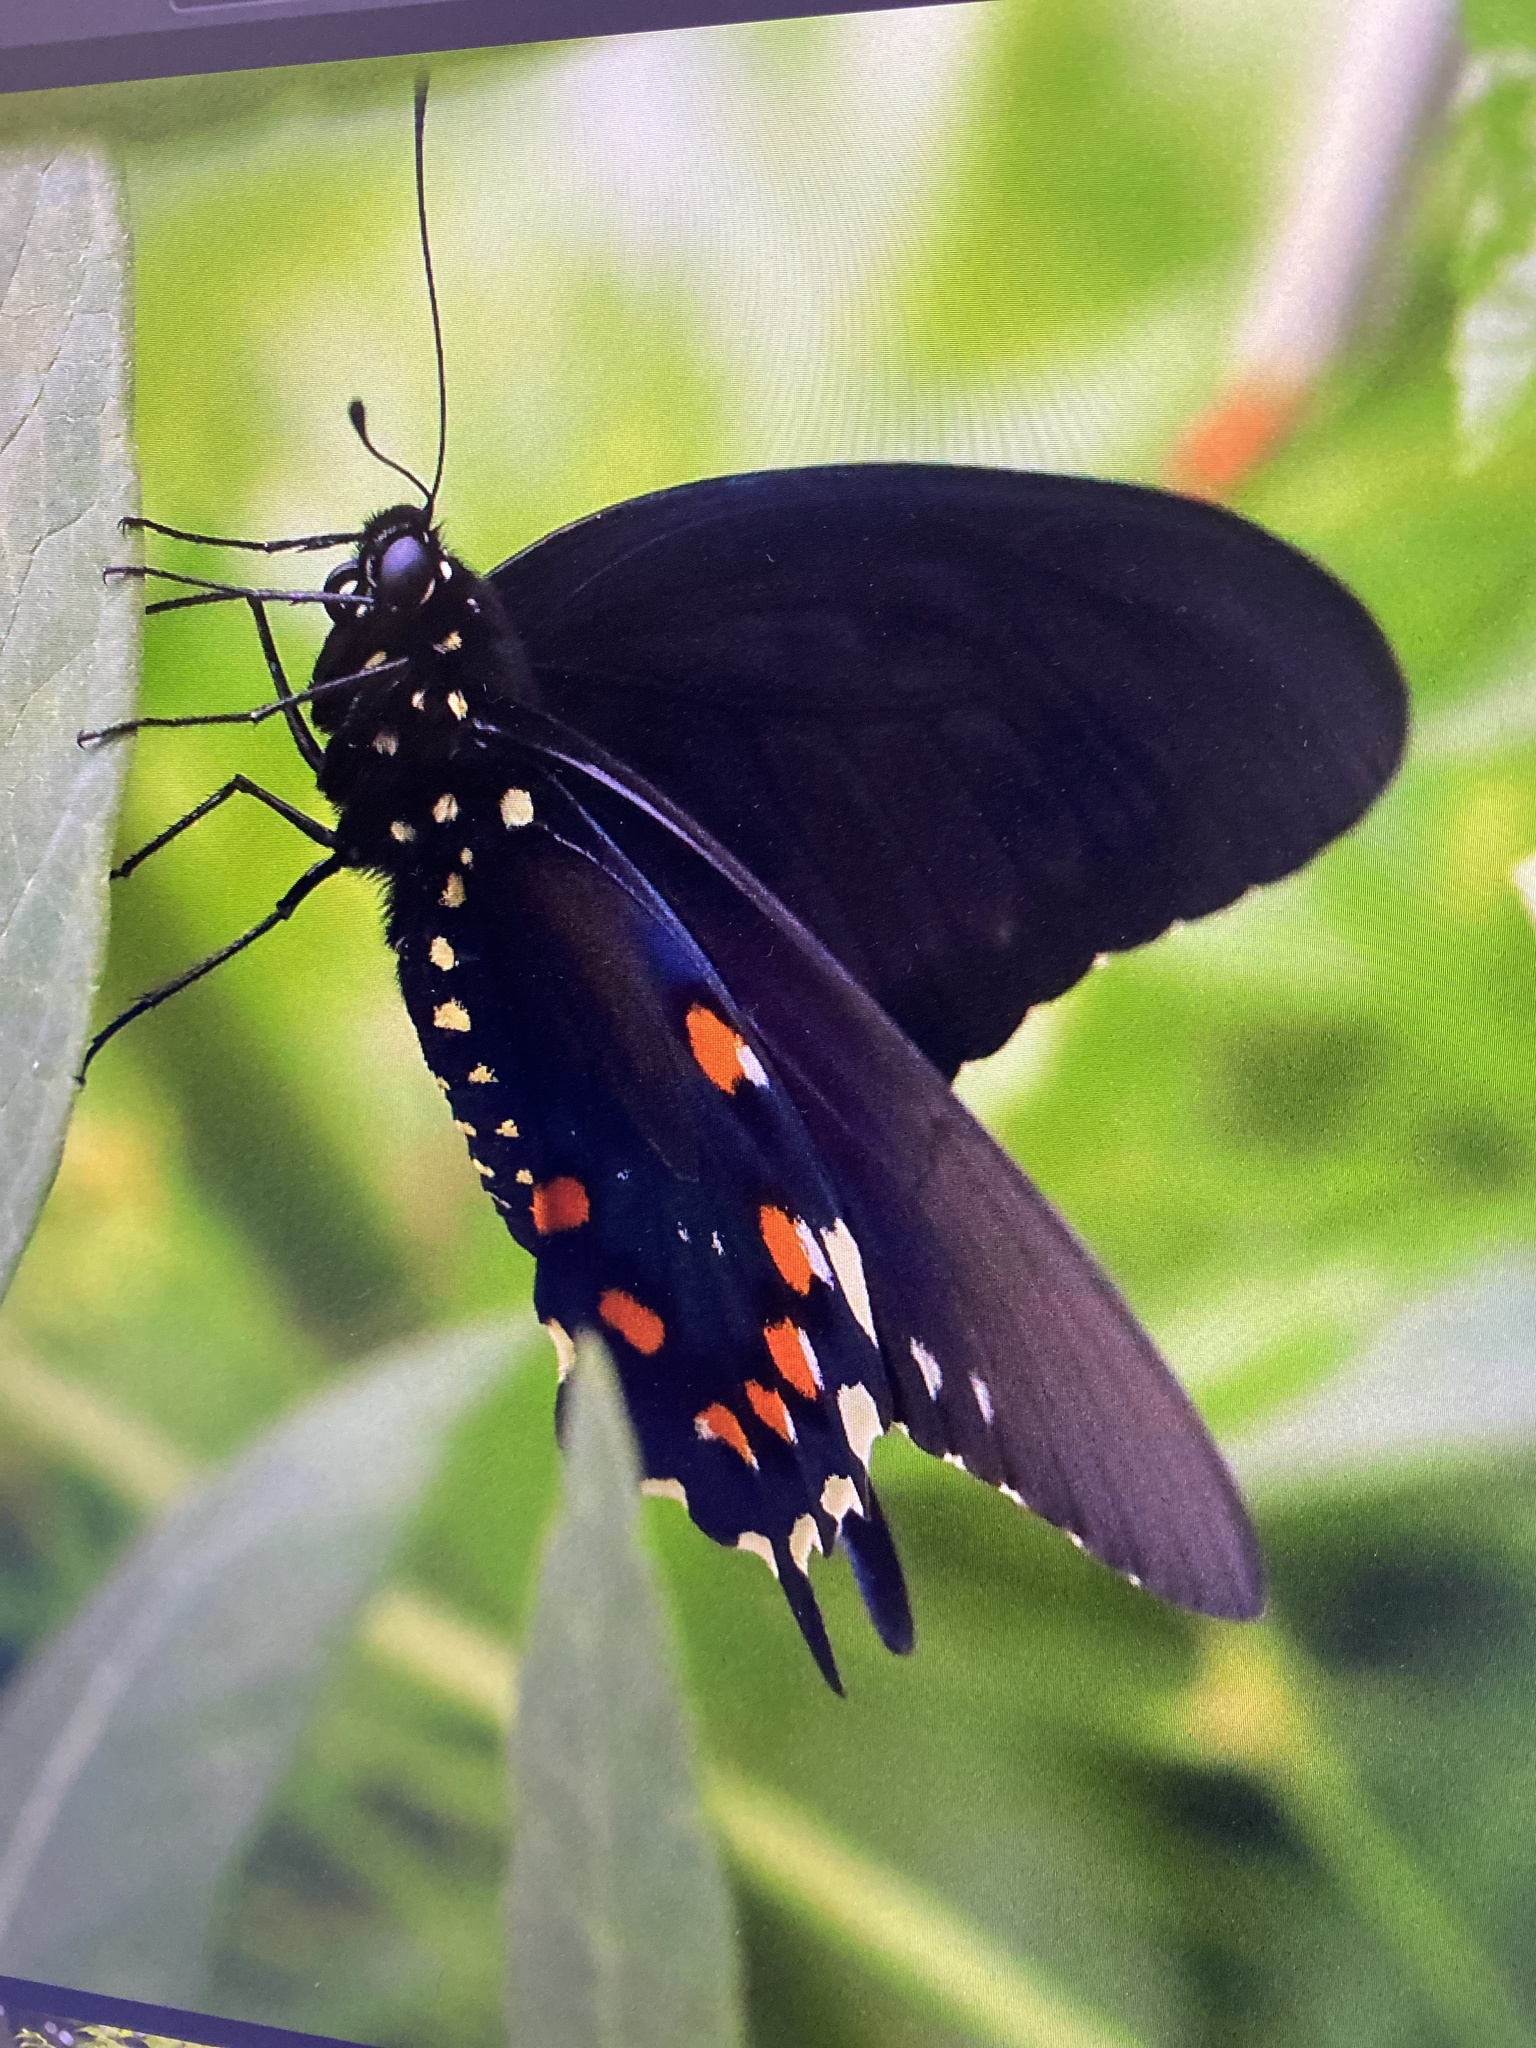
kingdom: Animalia
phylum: Arthropoda
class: Insecta
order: Lepidoptera
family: Papilionidae
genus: Battus
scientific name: Battus philenor
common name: Pipevine swallowtail
